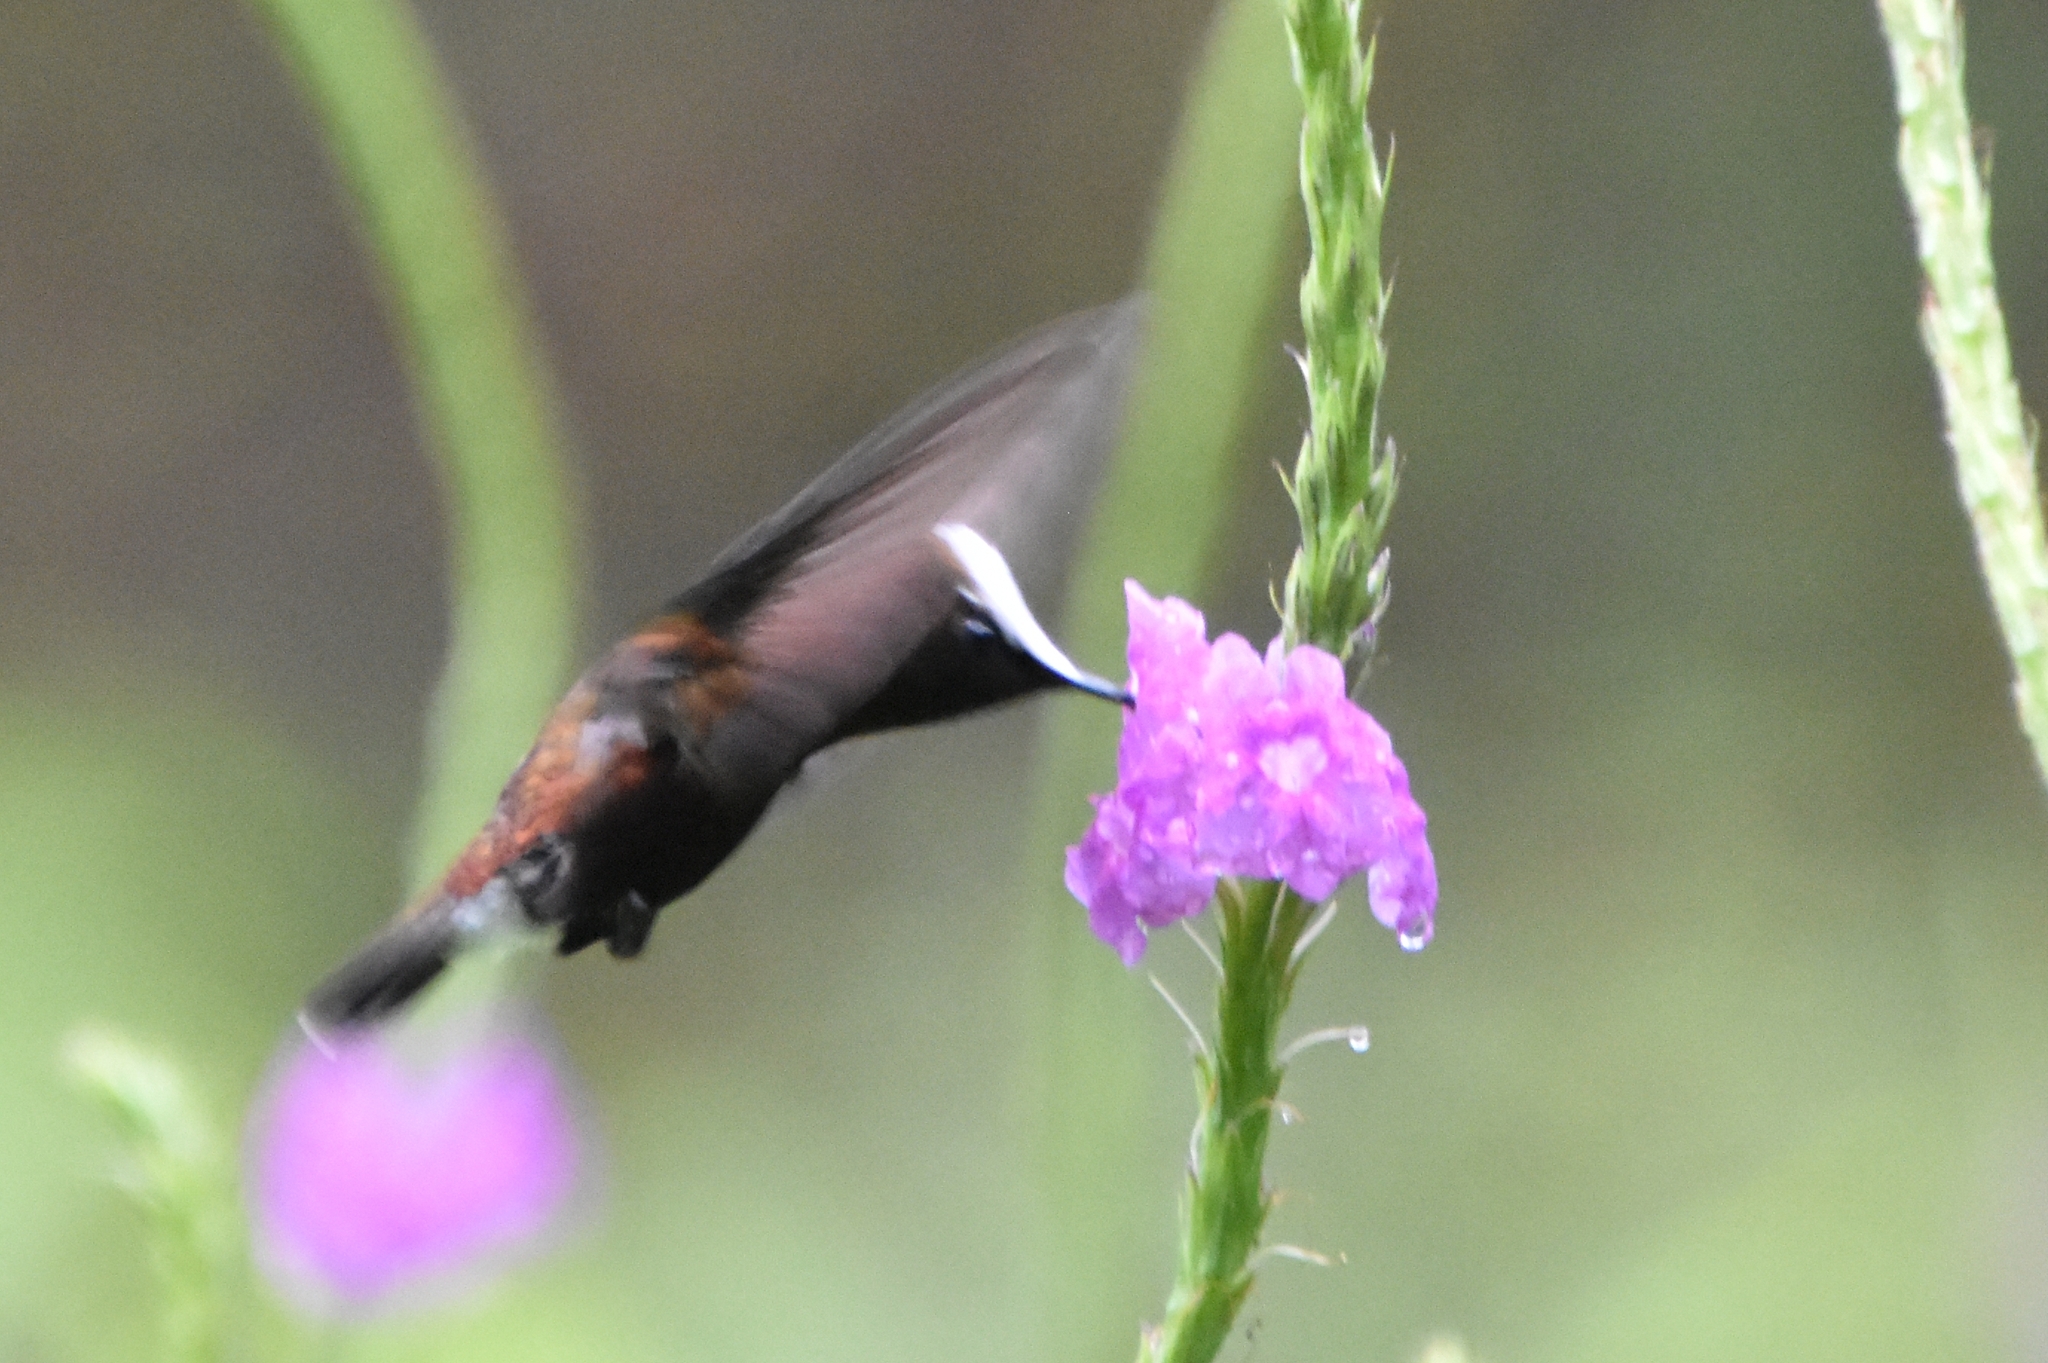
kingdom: Animalia
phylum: Chordata
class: Aves
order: Apodiformes
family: Trochilidae
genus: Microchera
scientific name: Microchera albocoronata
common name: Snowcap
